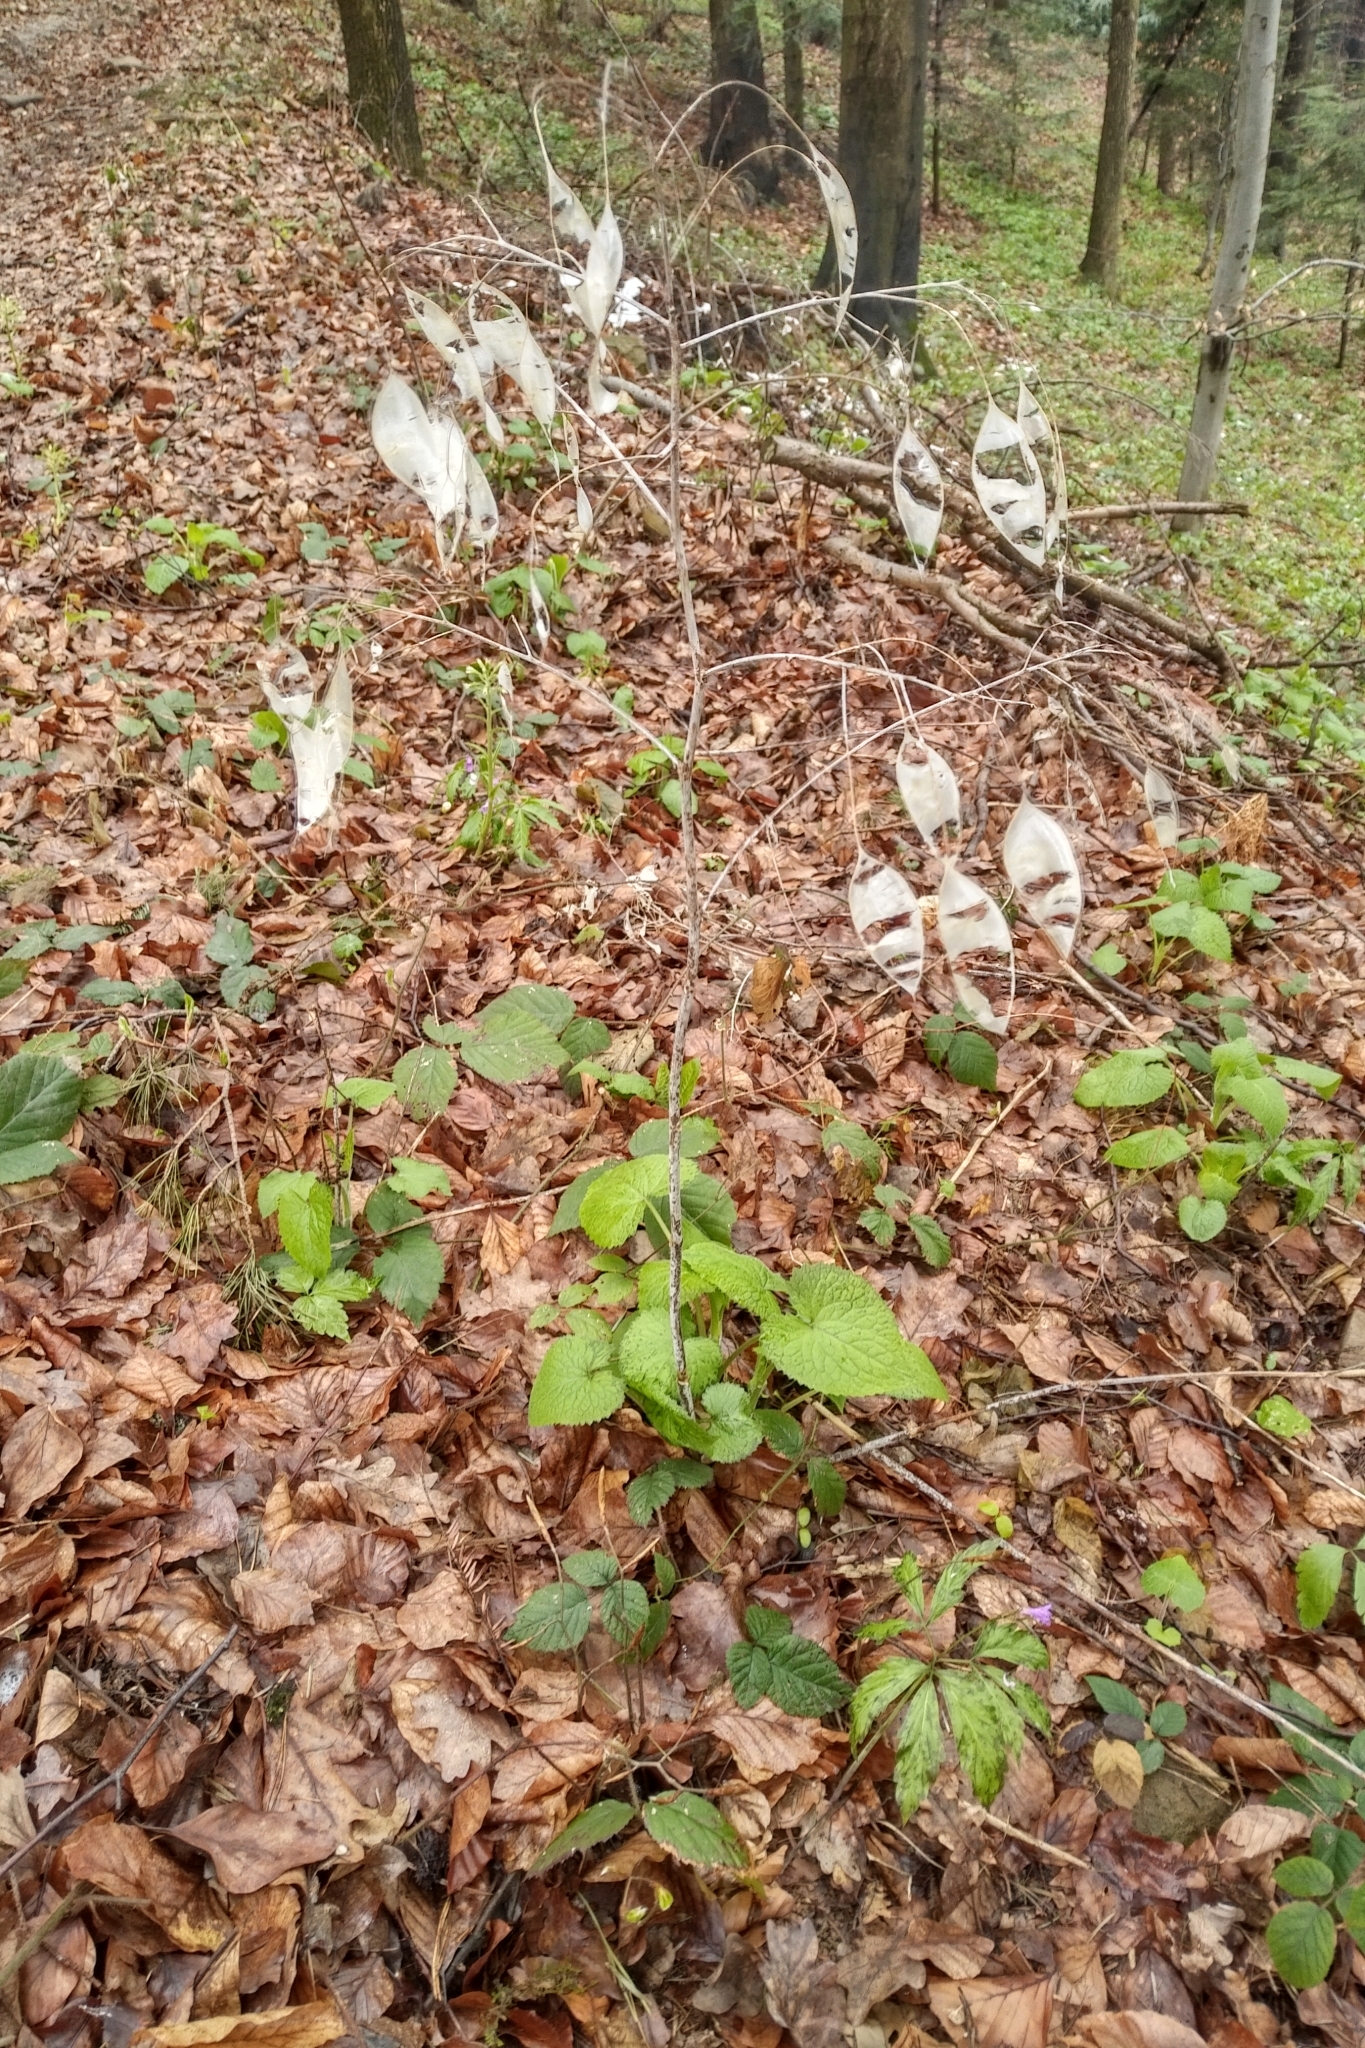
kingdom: Plantae
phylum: Tracheophyta
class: Magnoliopsida
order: Brassicales
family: Brassicaceae
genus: Lunaria
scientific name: Lunaria rediviva
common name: Perennial honesty
